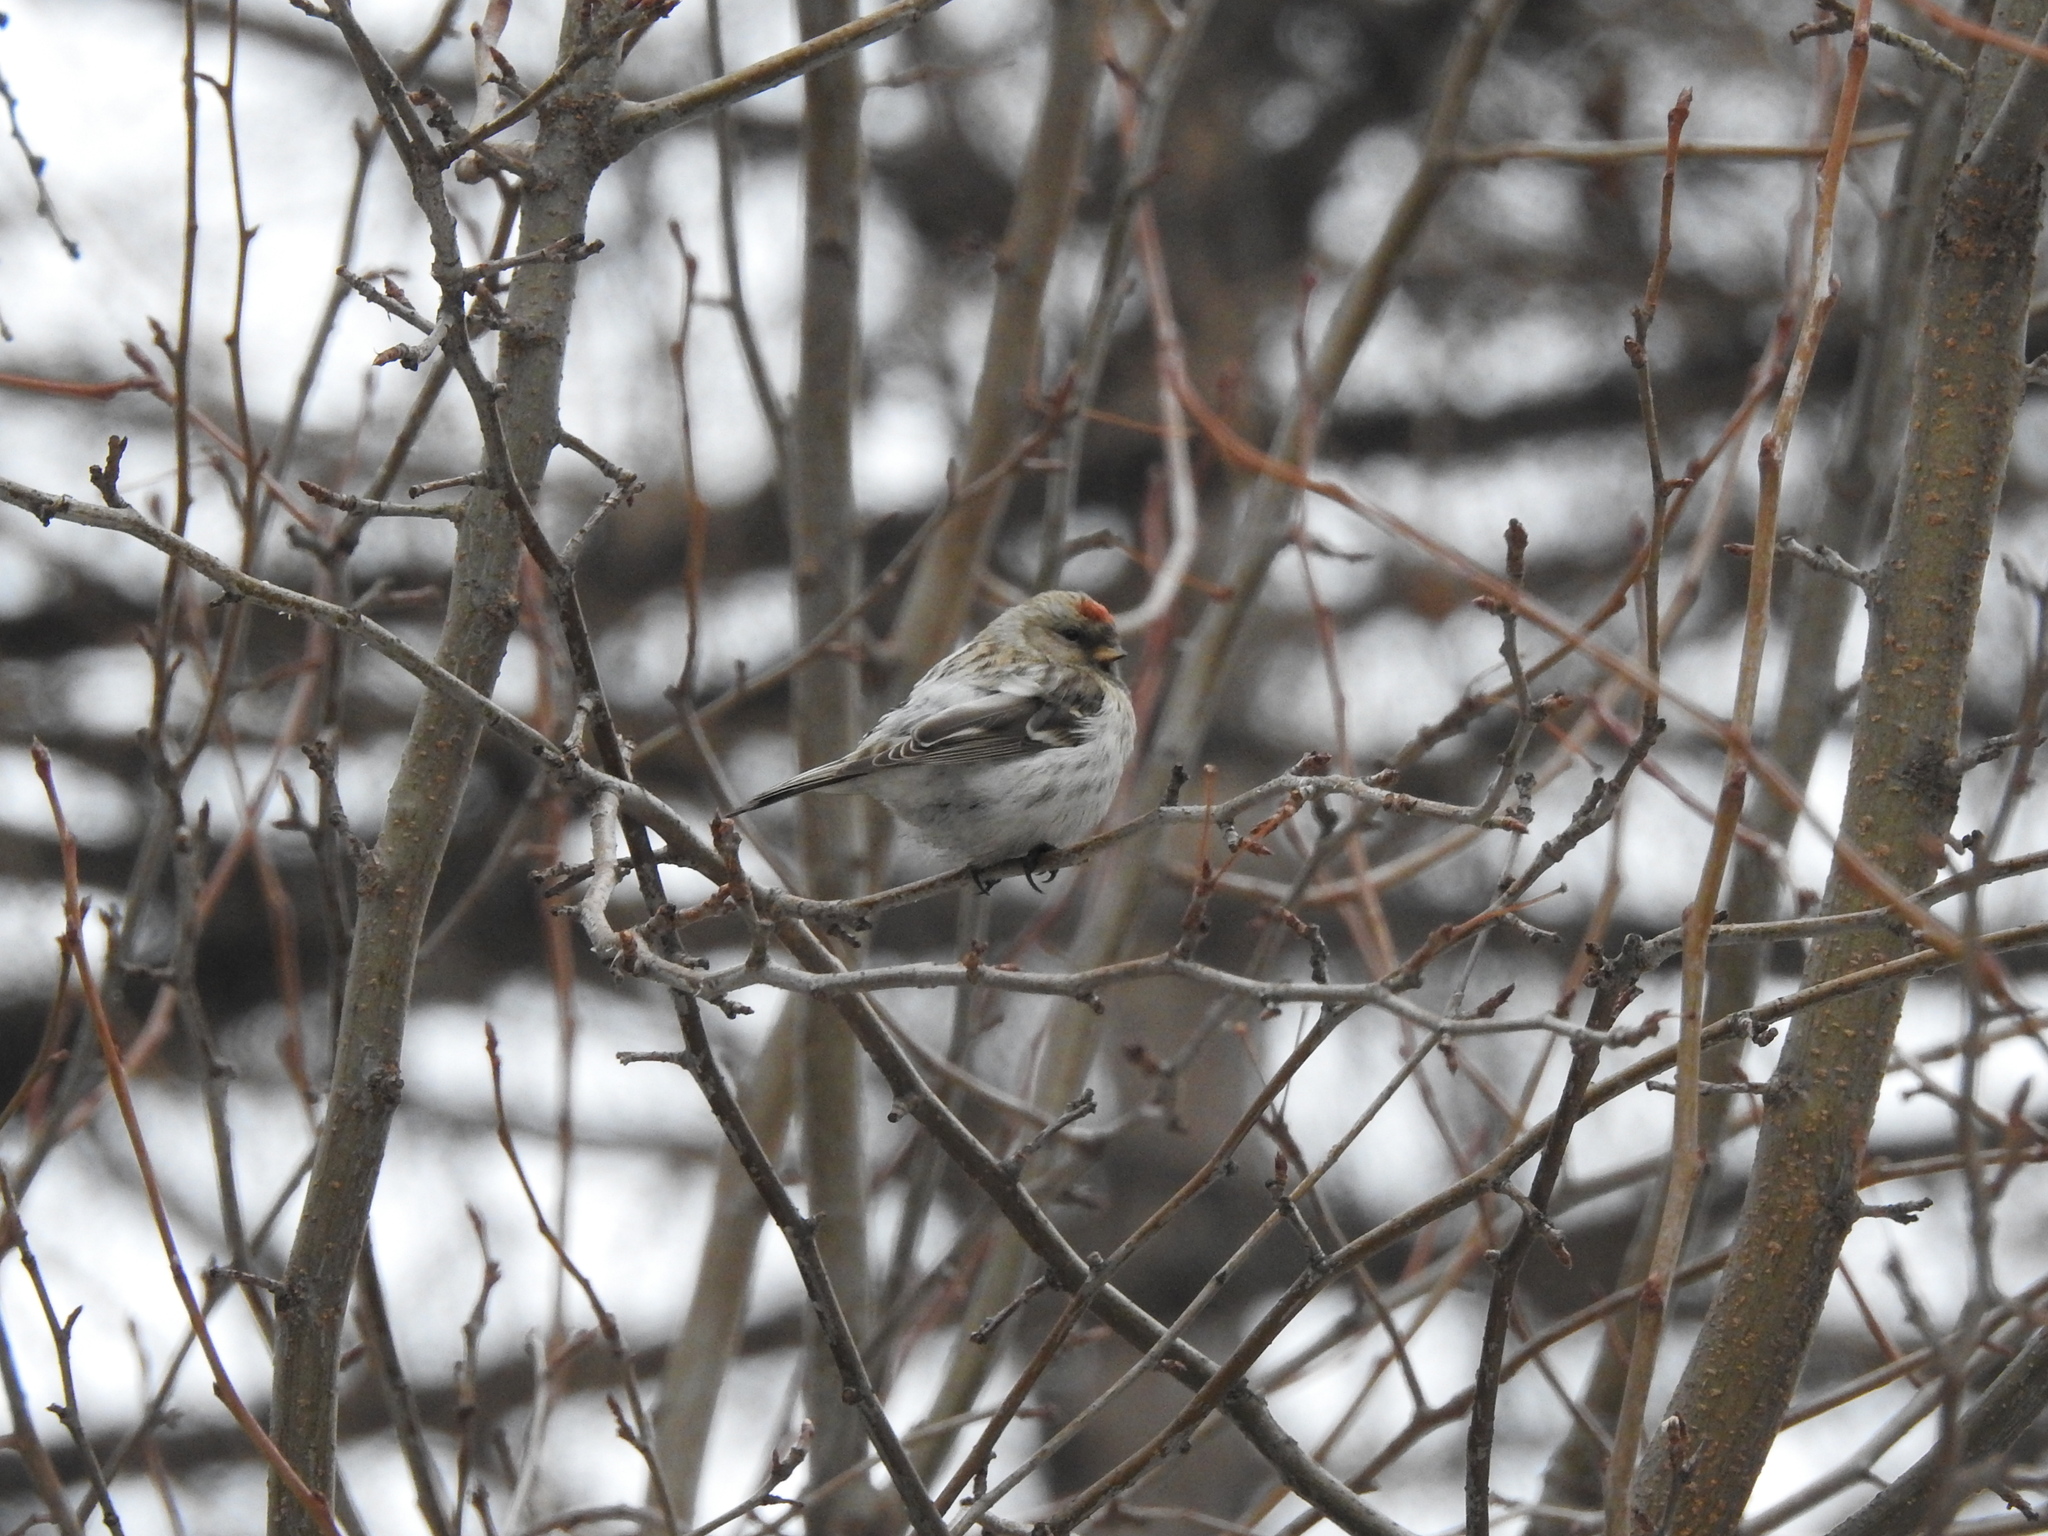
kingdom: Animalia
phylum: Chordata
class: Aves
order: Passeriformes
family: Fringillidae
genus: Acanthis
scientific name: Acanthis flammea
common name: Common redpoll
